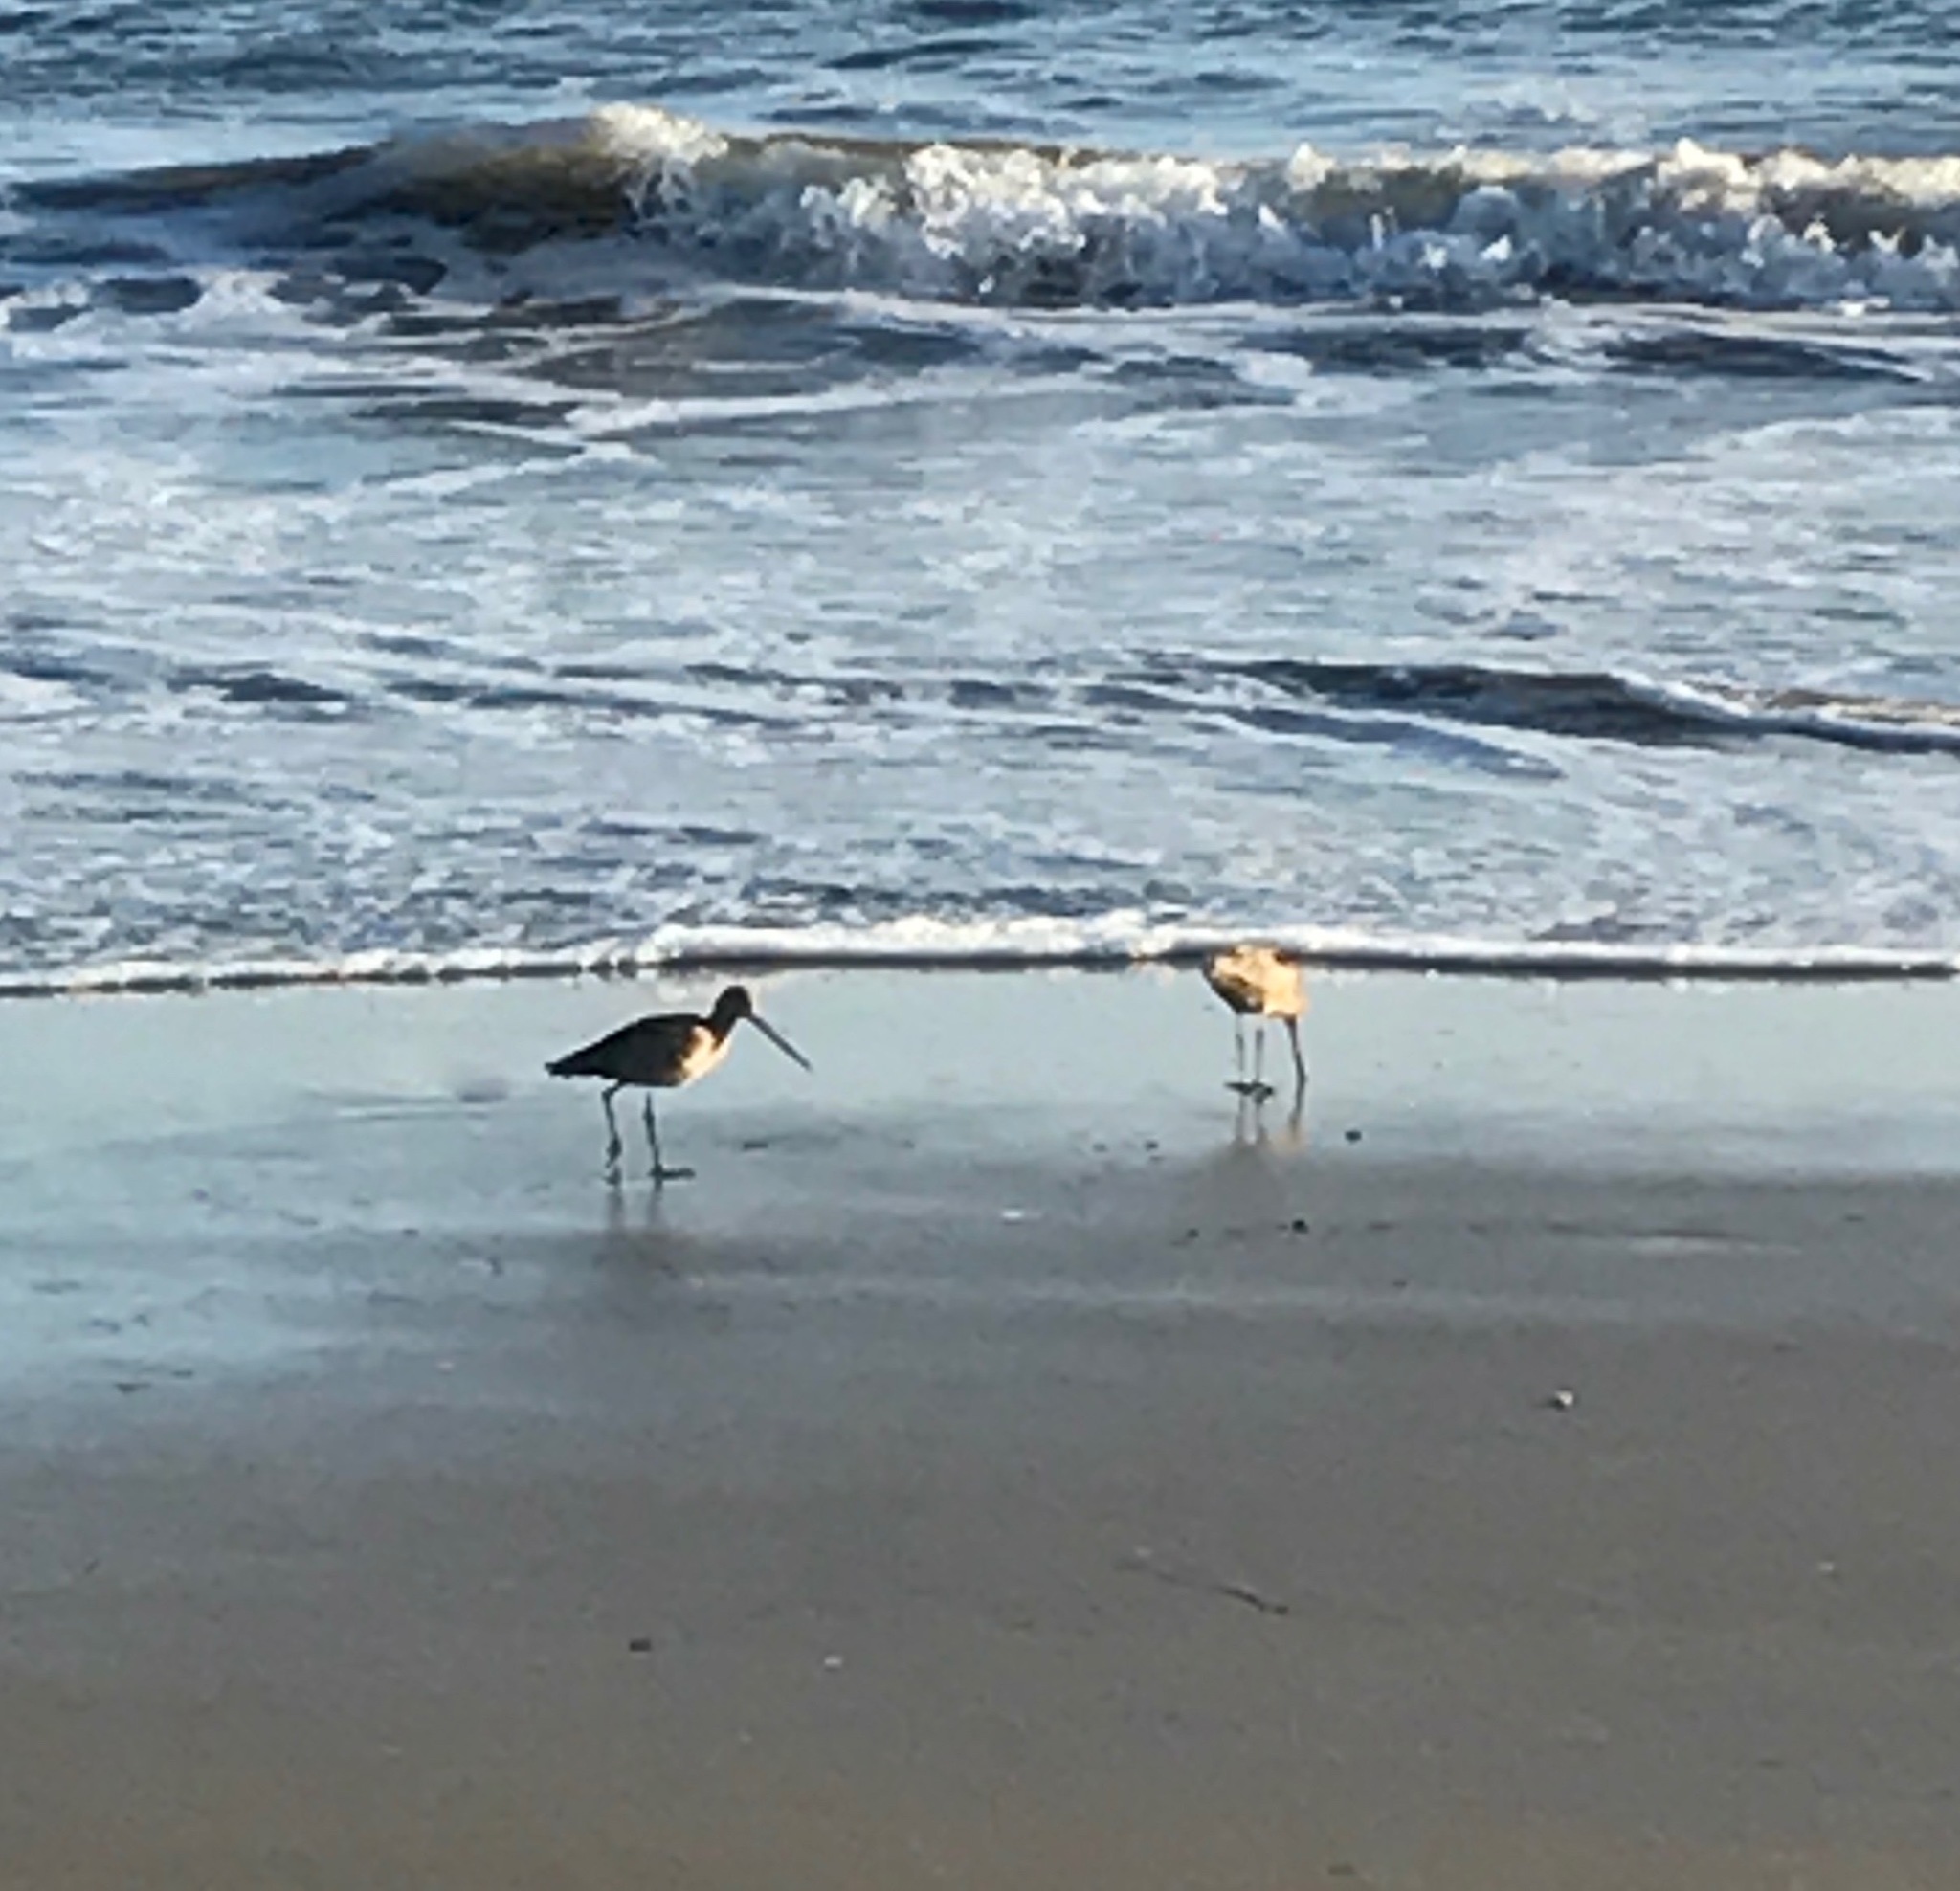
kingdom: Animalia
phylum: Chordata
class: Aves
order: Charadriiformes
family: Scolopacidae
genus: Limosa
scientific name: Limosa fedoa
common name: Marbled godwit
